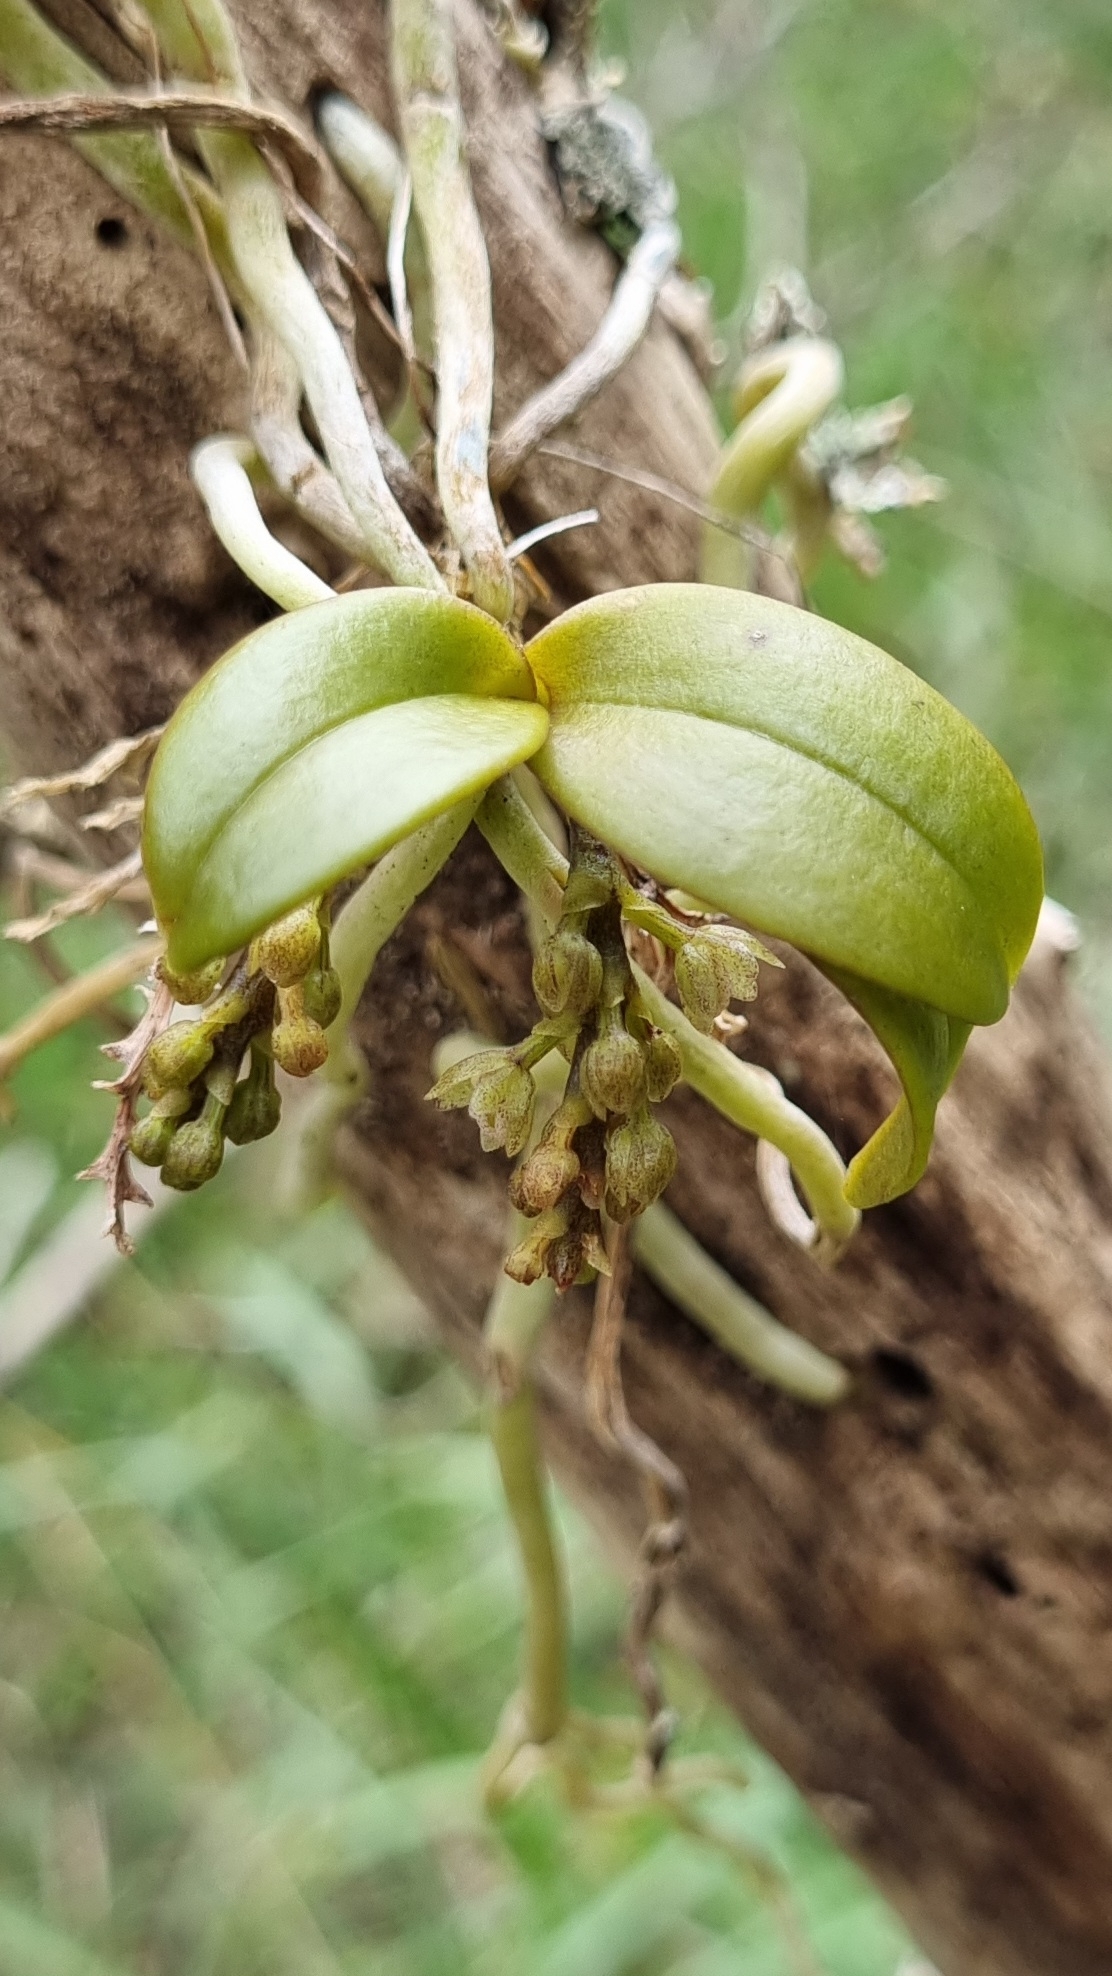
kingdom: Plantae
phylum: Tracheophyta
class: Liliopsida
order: Asparagales
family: Orchidaceae
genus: Drymoanthus
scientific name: Drymoanthus adversus
